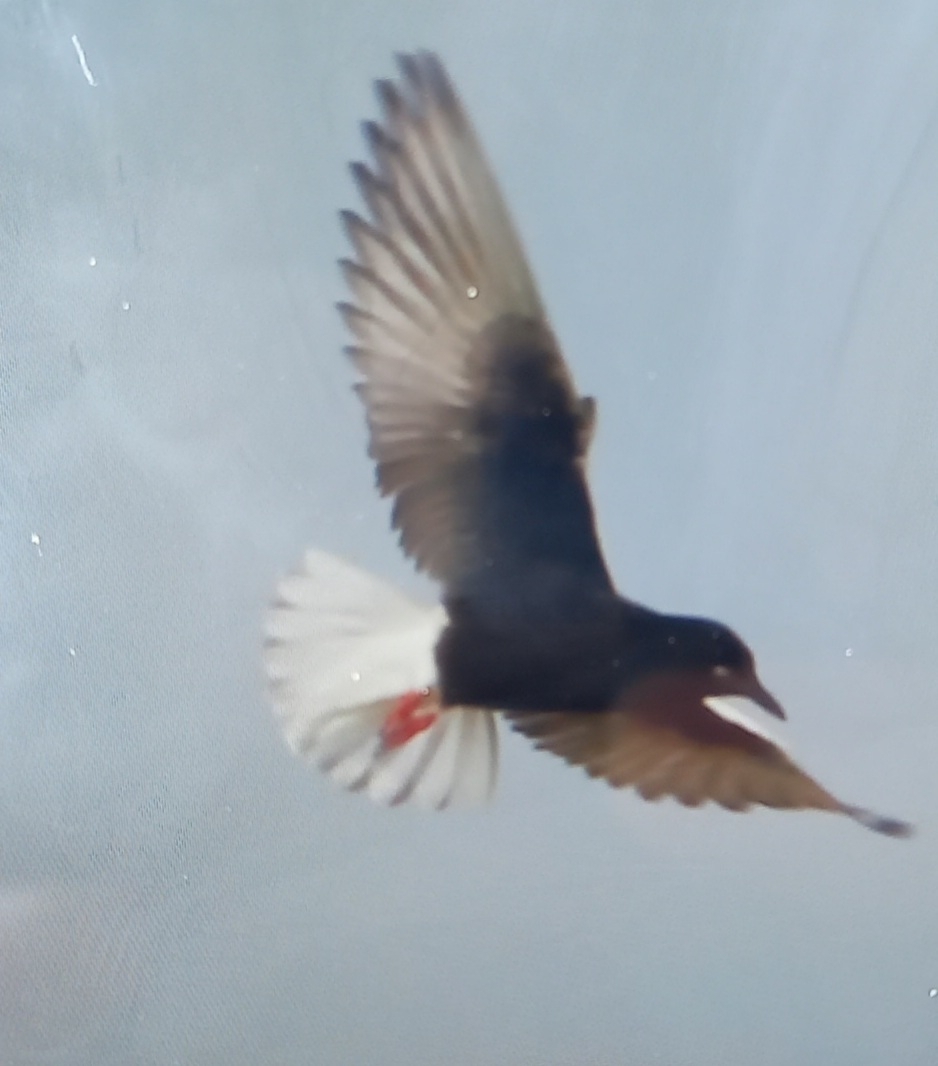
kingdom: Animalia
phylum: Chordata
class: Aves
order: Charadriiformes
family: Laridae
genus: Chlidonias
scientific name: Chlidonias leucopterus
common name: White-winged tern
